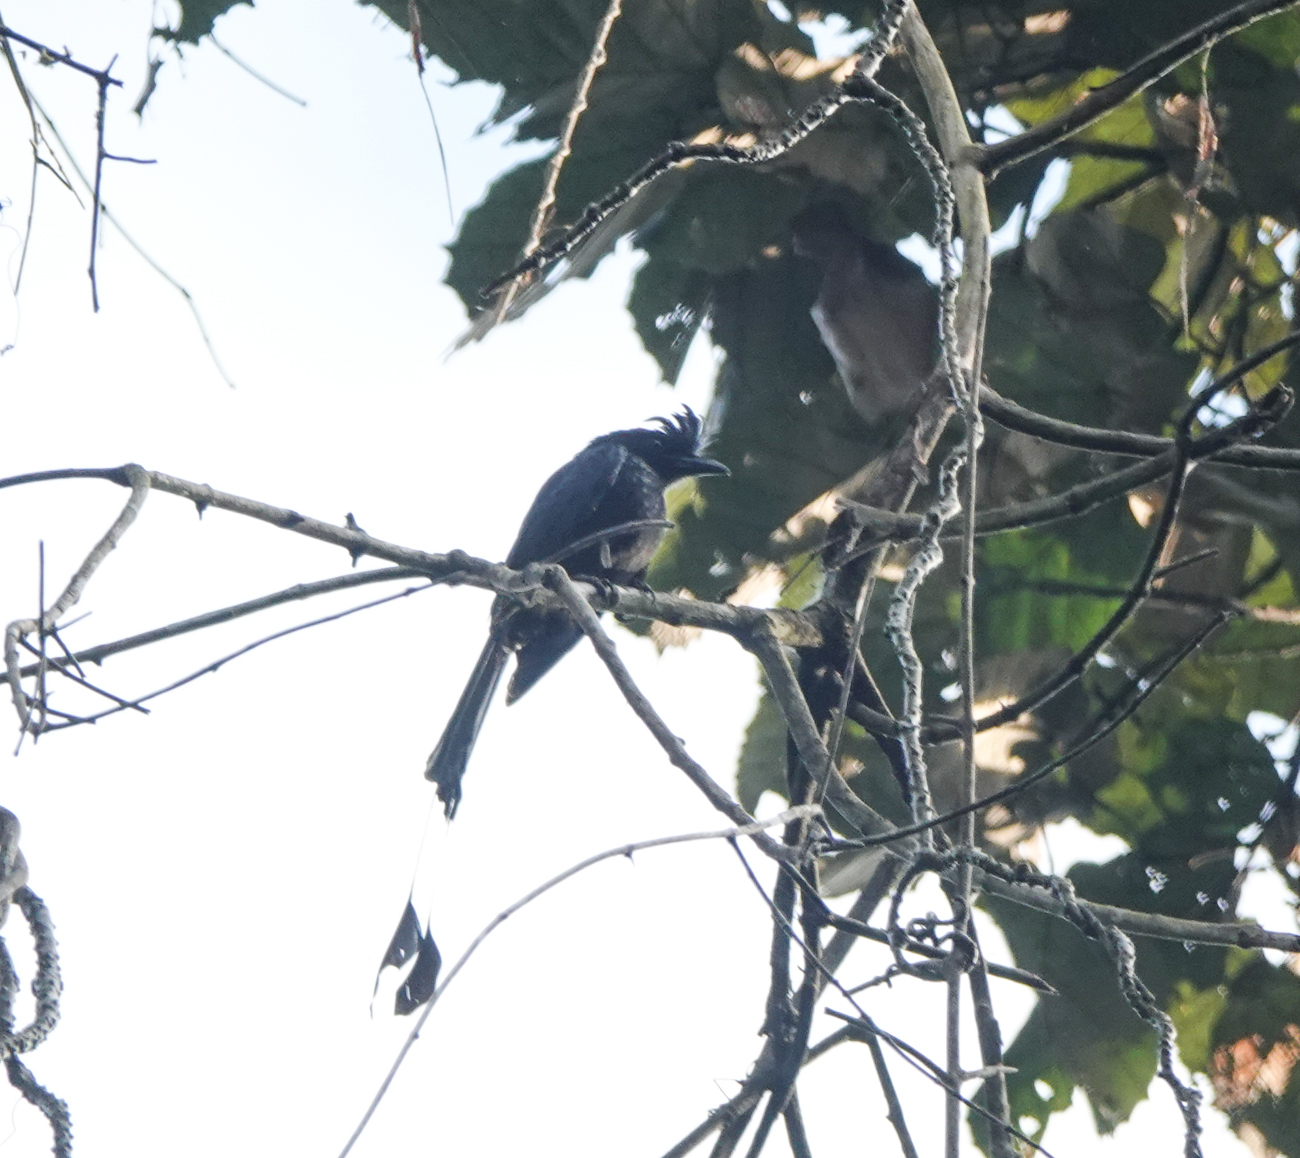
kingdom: Animalia
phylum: Chordata
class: Aves
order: Passeriformes
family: Dicruridae
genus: Dicrurus
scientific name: Dicrurus paradiseus
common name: Greater racket-tailed drongo
